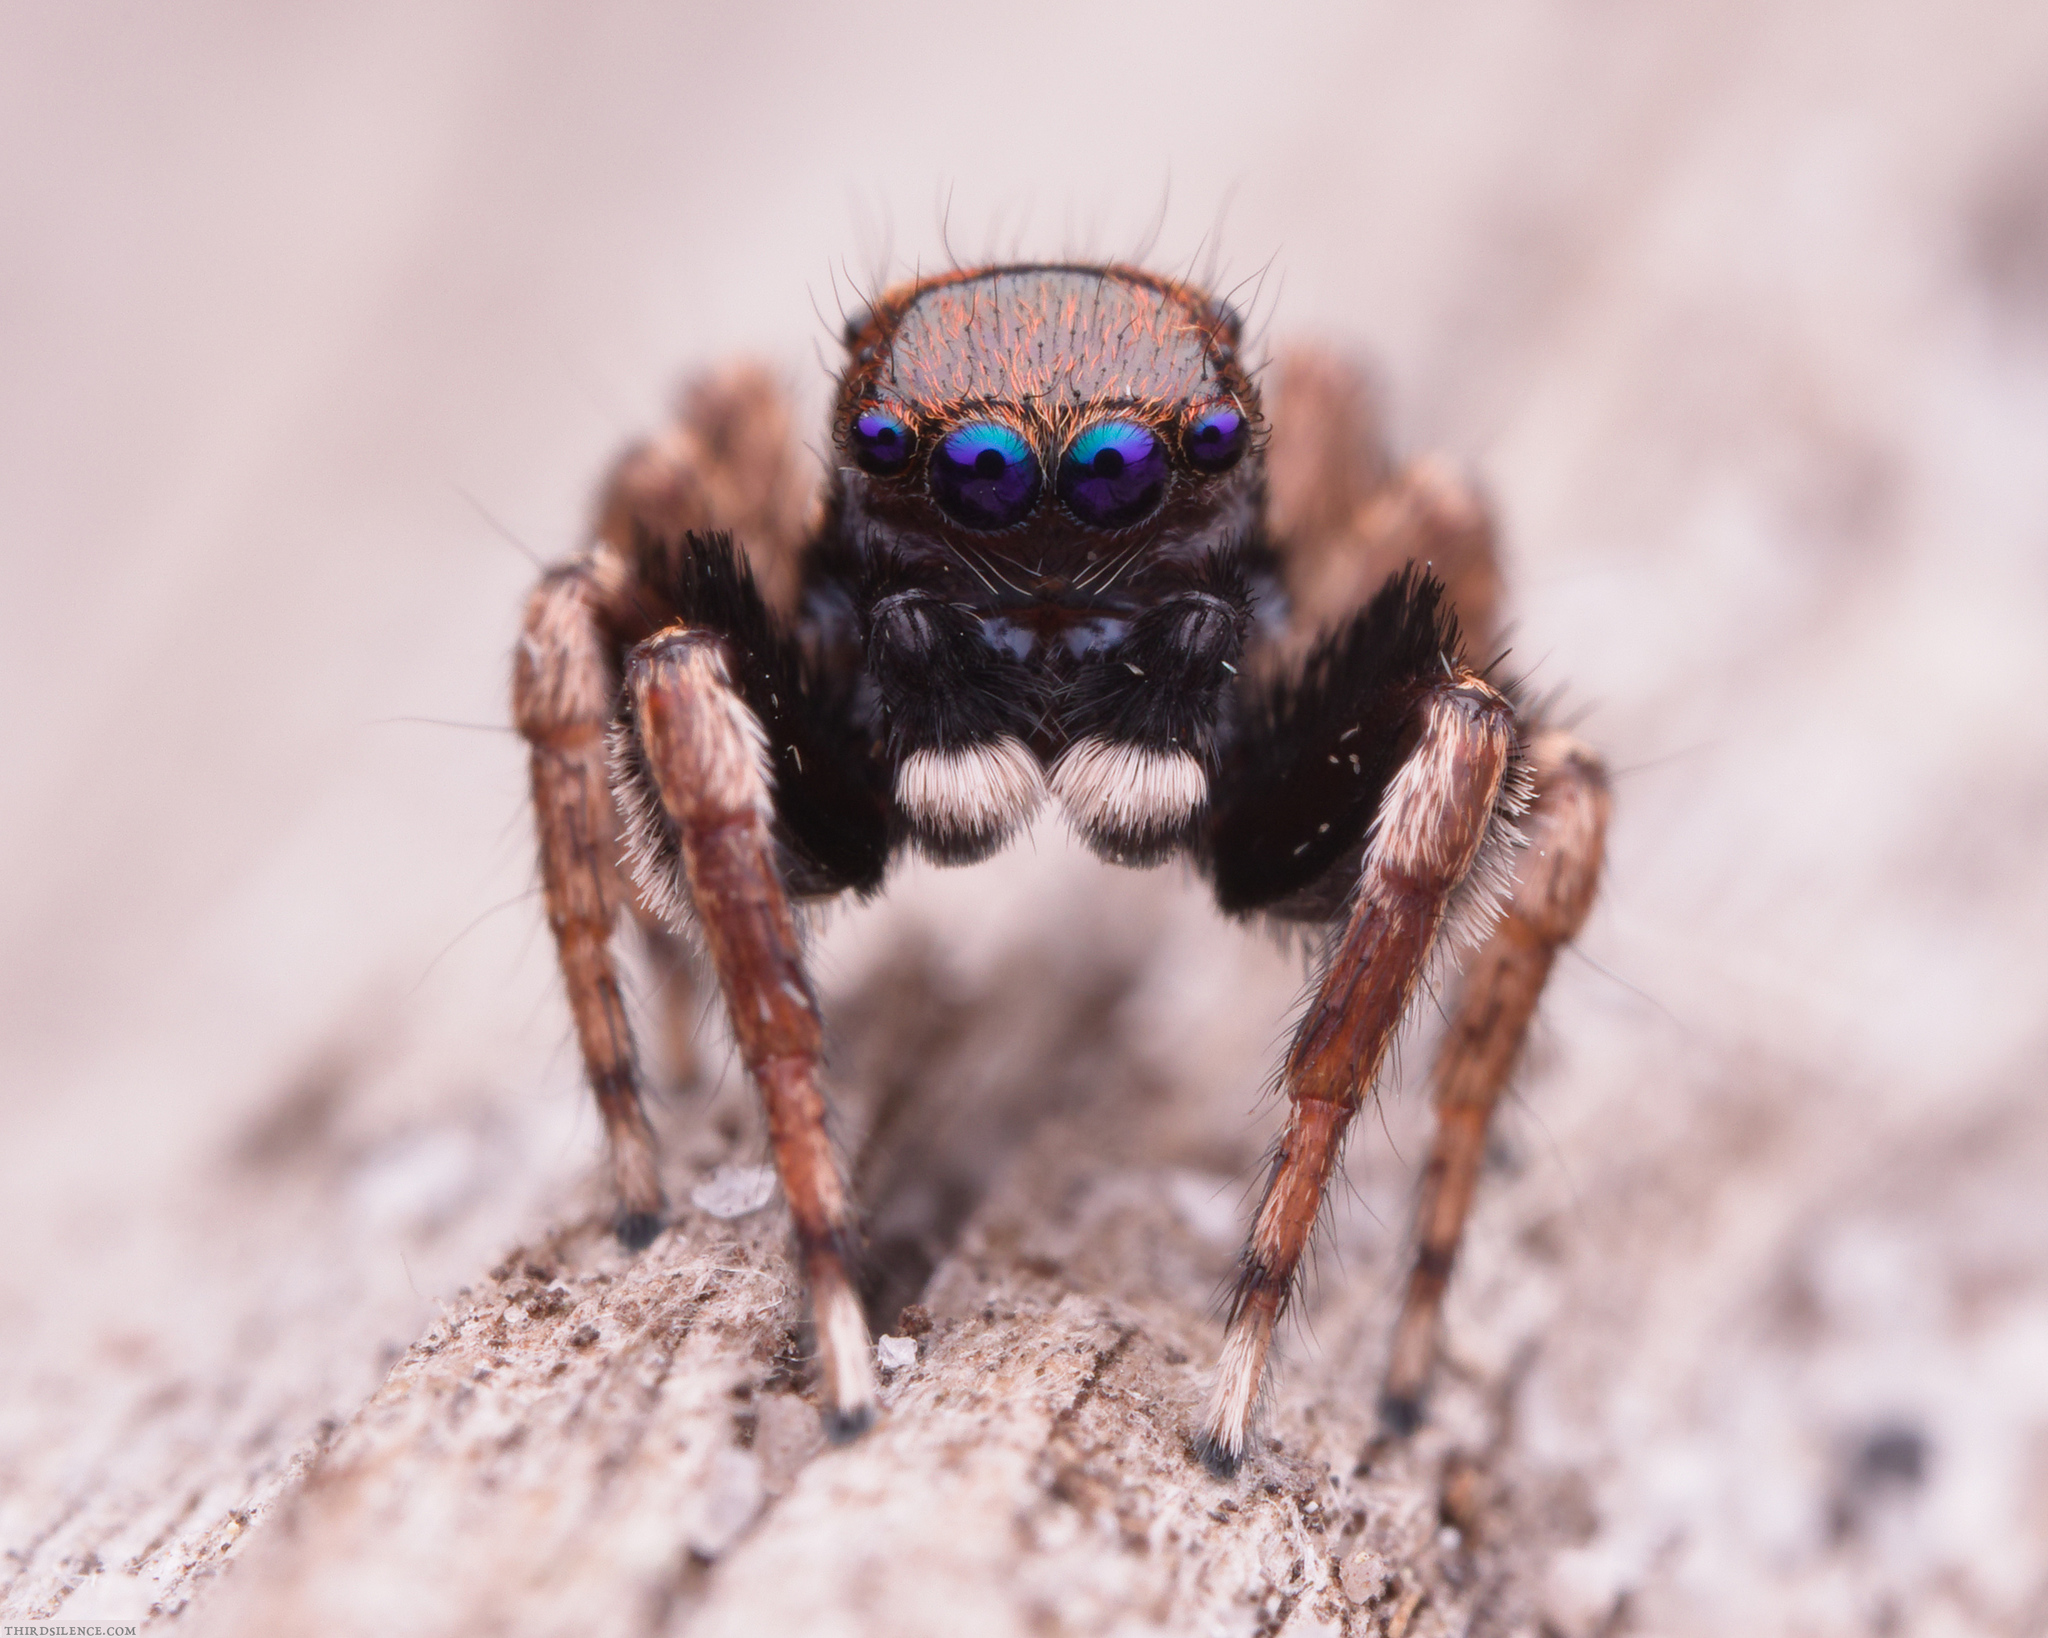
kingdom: Animalia
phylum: Arthropoda
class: Arachnida
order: Araneae
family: Salticidae
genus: Jotus
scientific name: Jotus frosti
